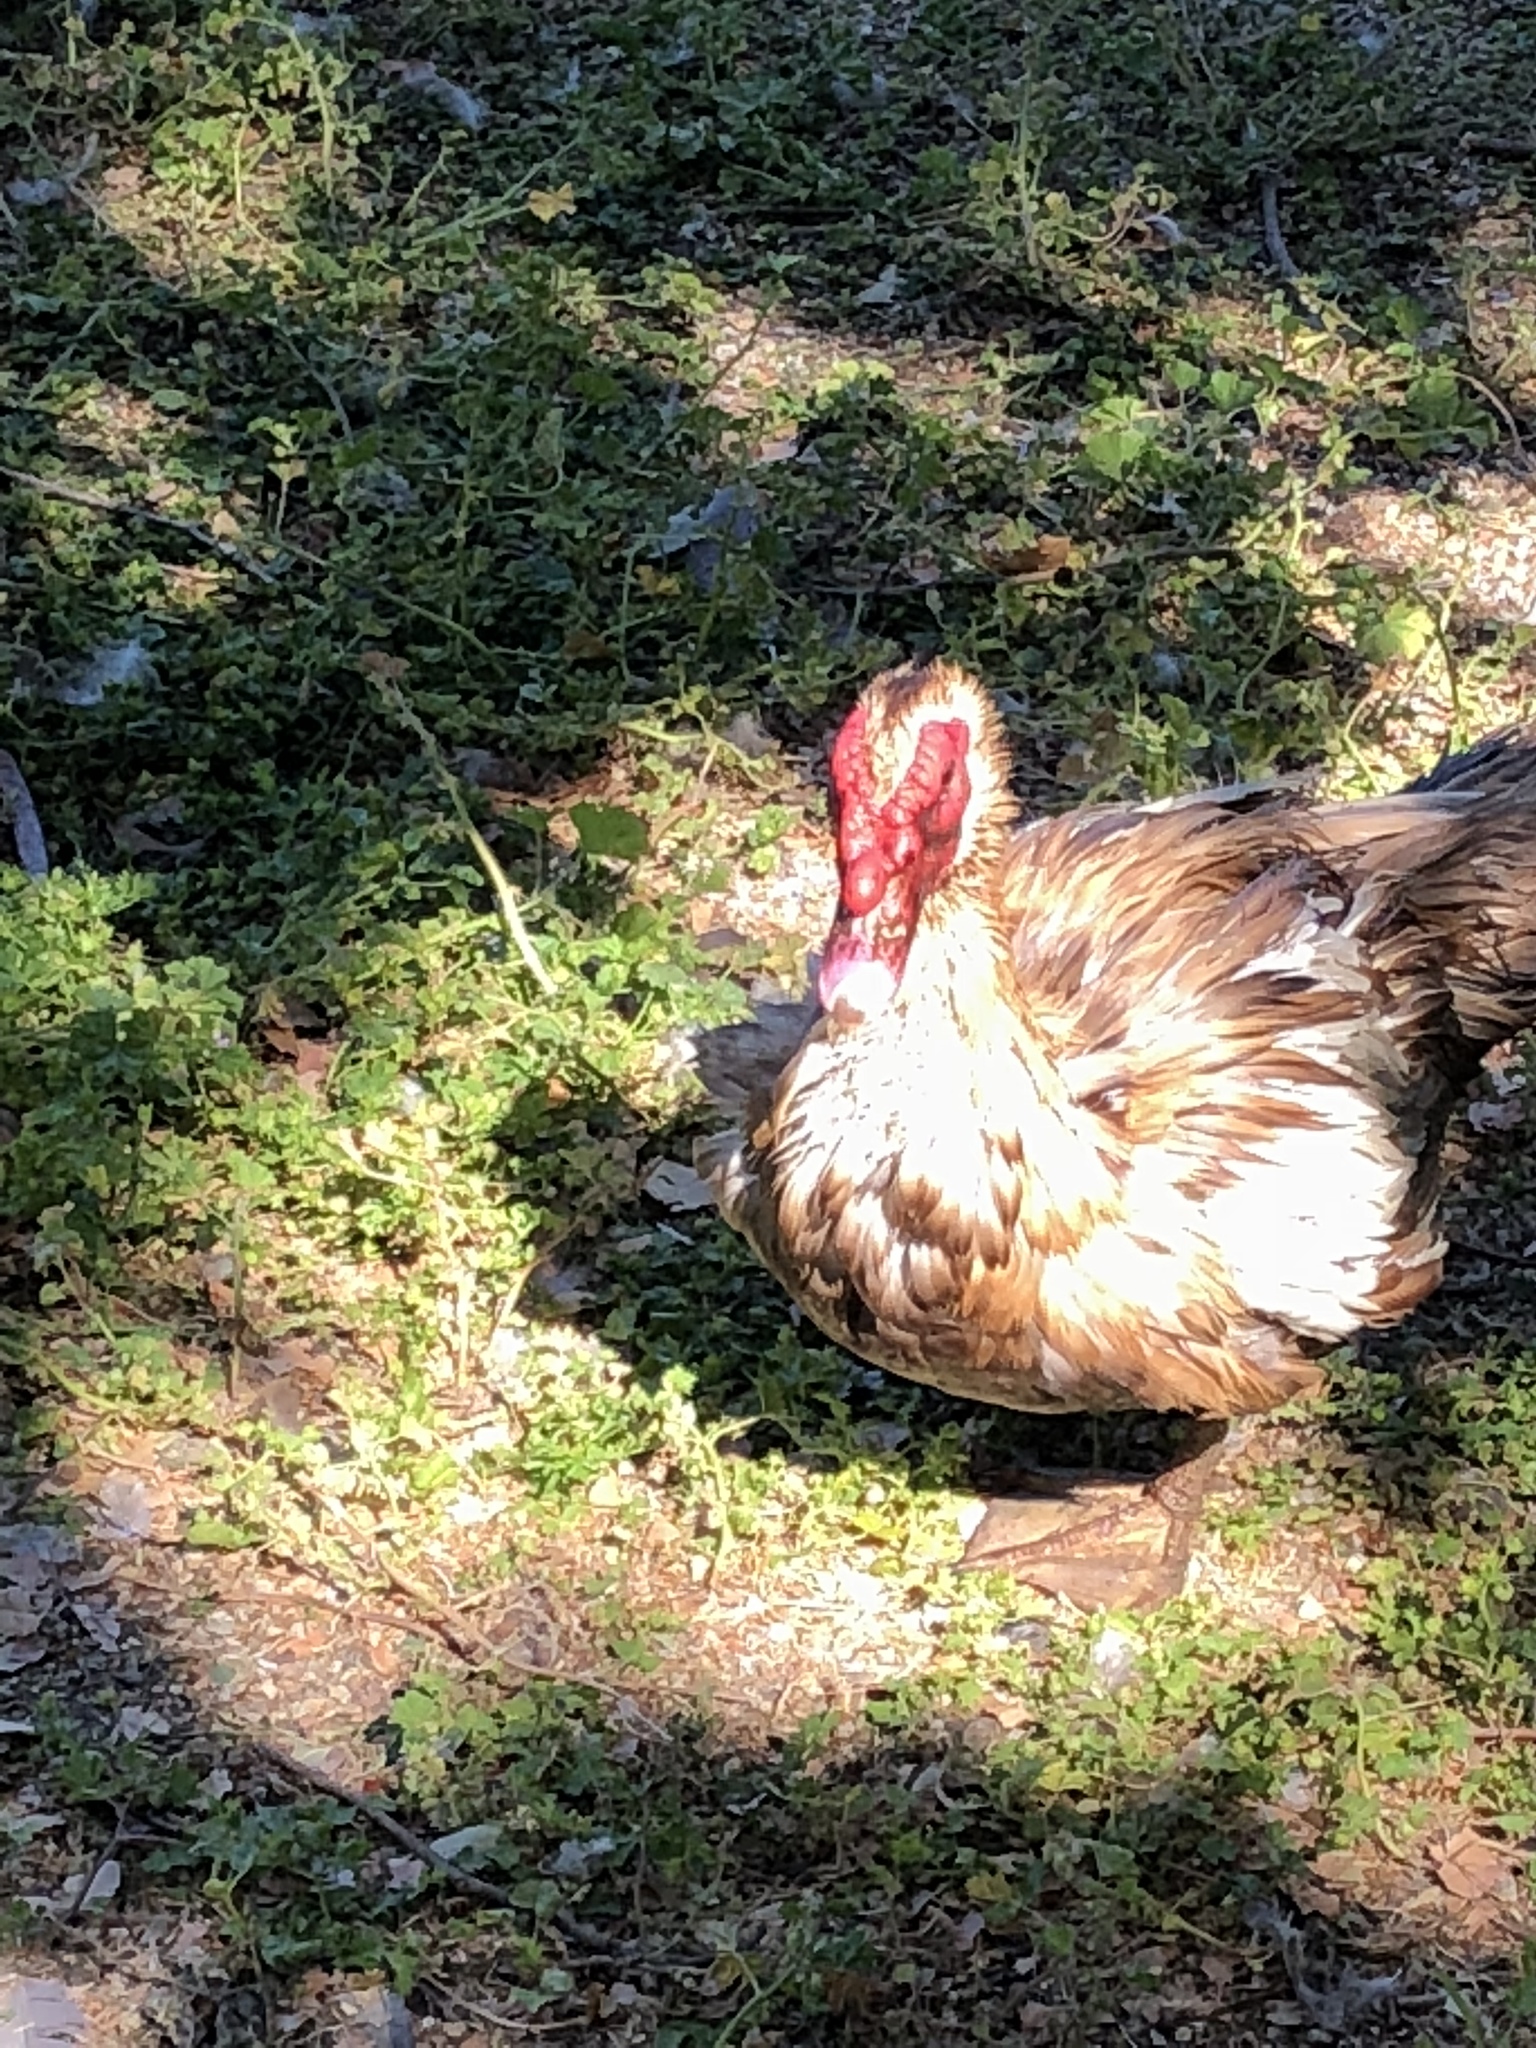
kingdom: Animalia
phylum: Chordata
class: Aves
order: Anseriformes
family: Anatidae
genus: Cairina
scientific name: Cairina moschata
